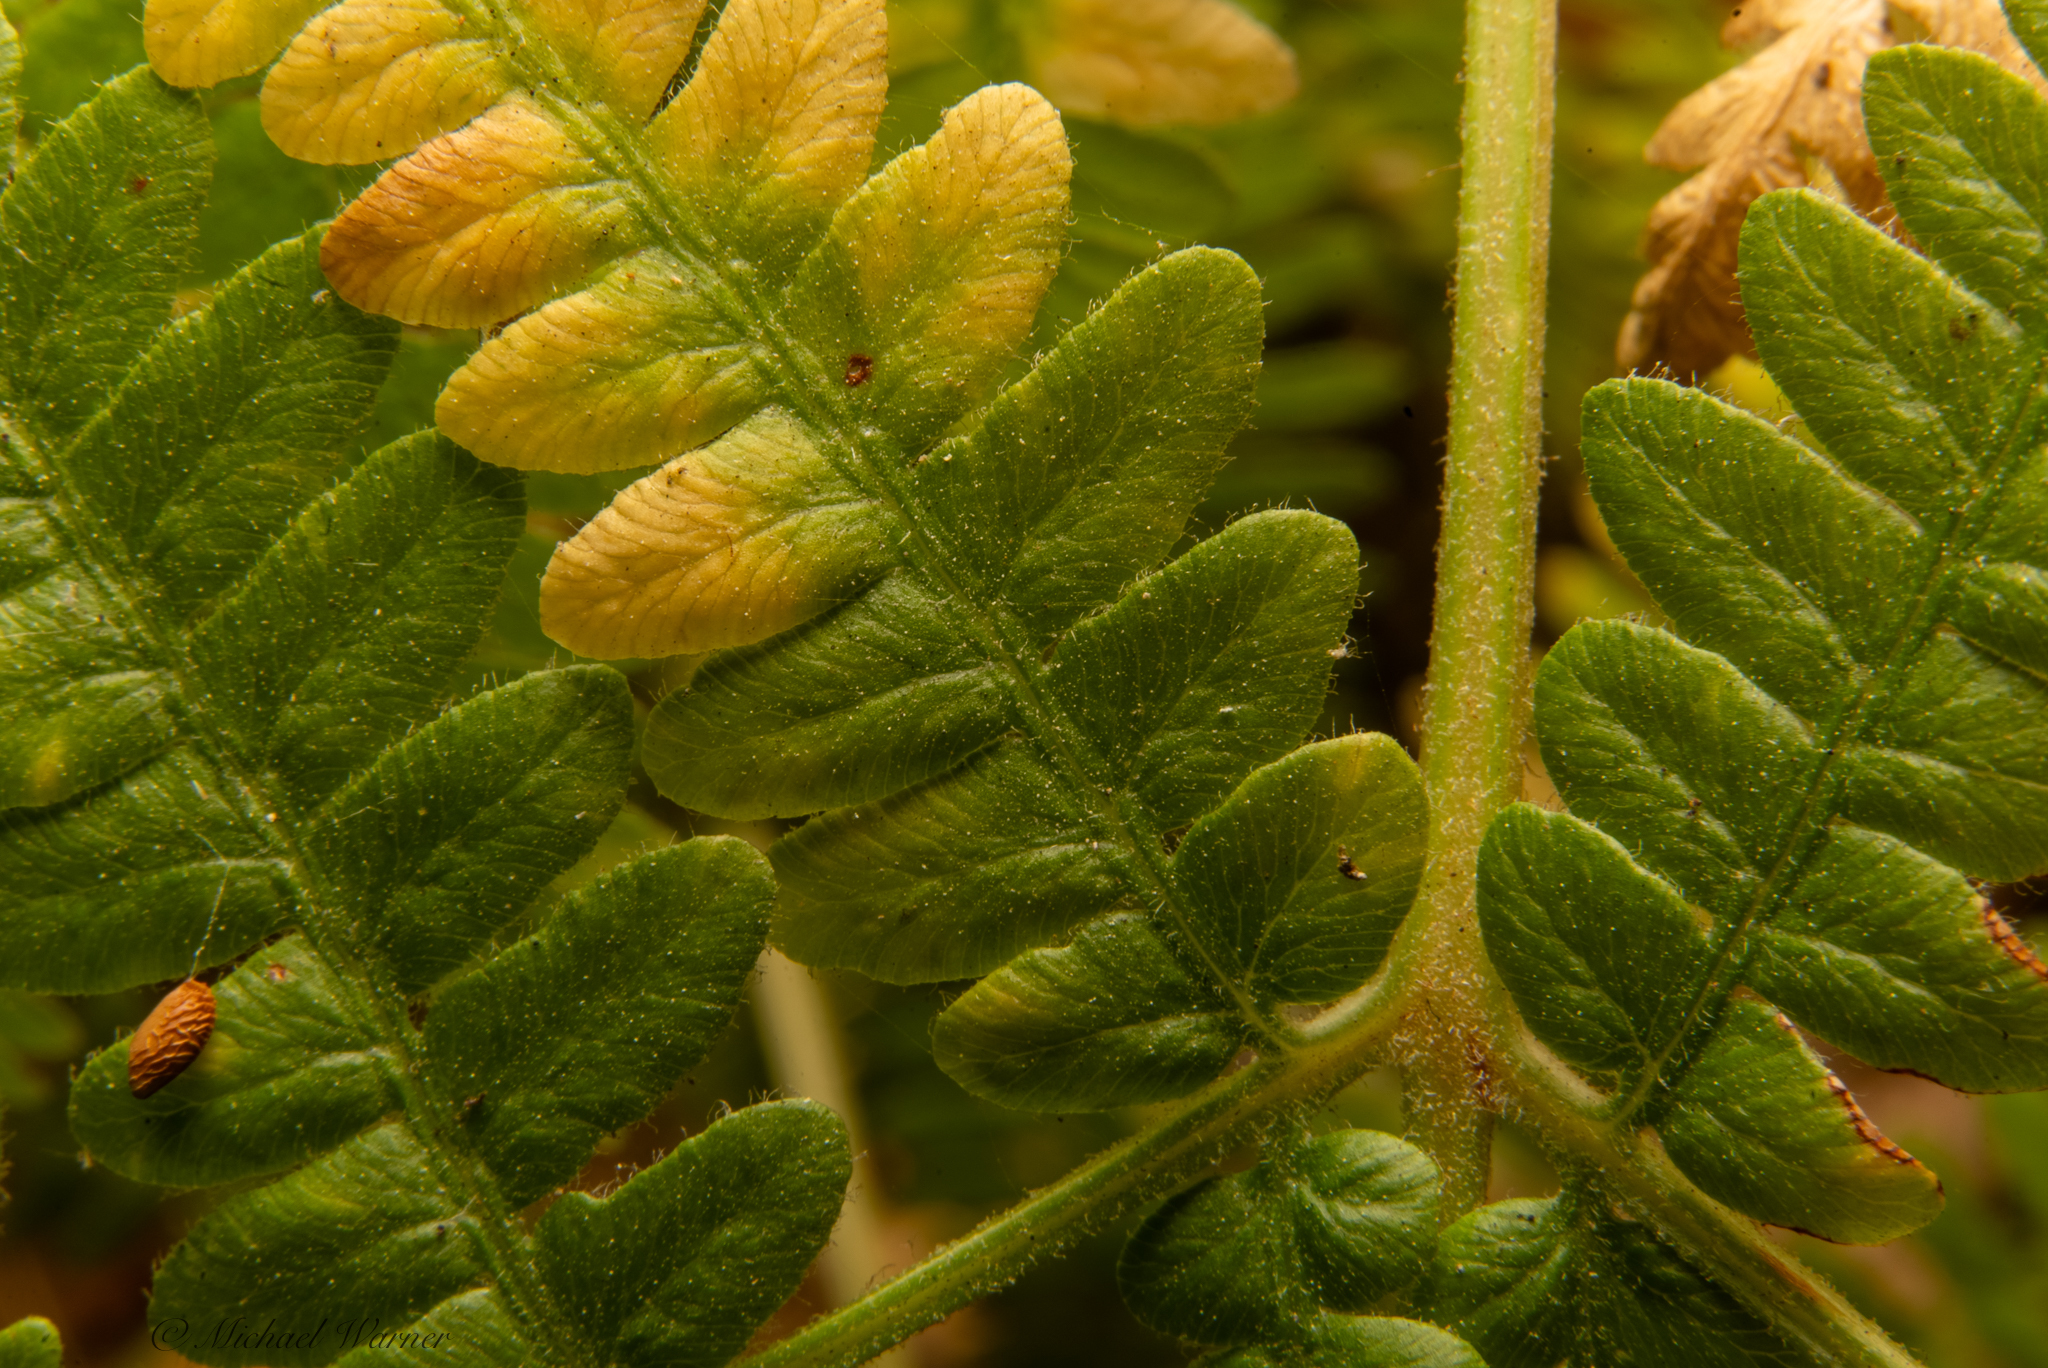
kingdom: Plantae
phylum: Tracheophyta
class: Polypodiopsida
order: Polypodiales
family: Dennstaedtiaceae
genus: Pteridium
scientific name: Pteridium aquilinum
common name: Bracken
